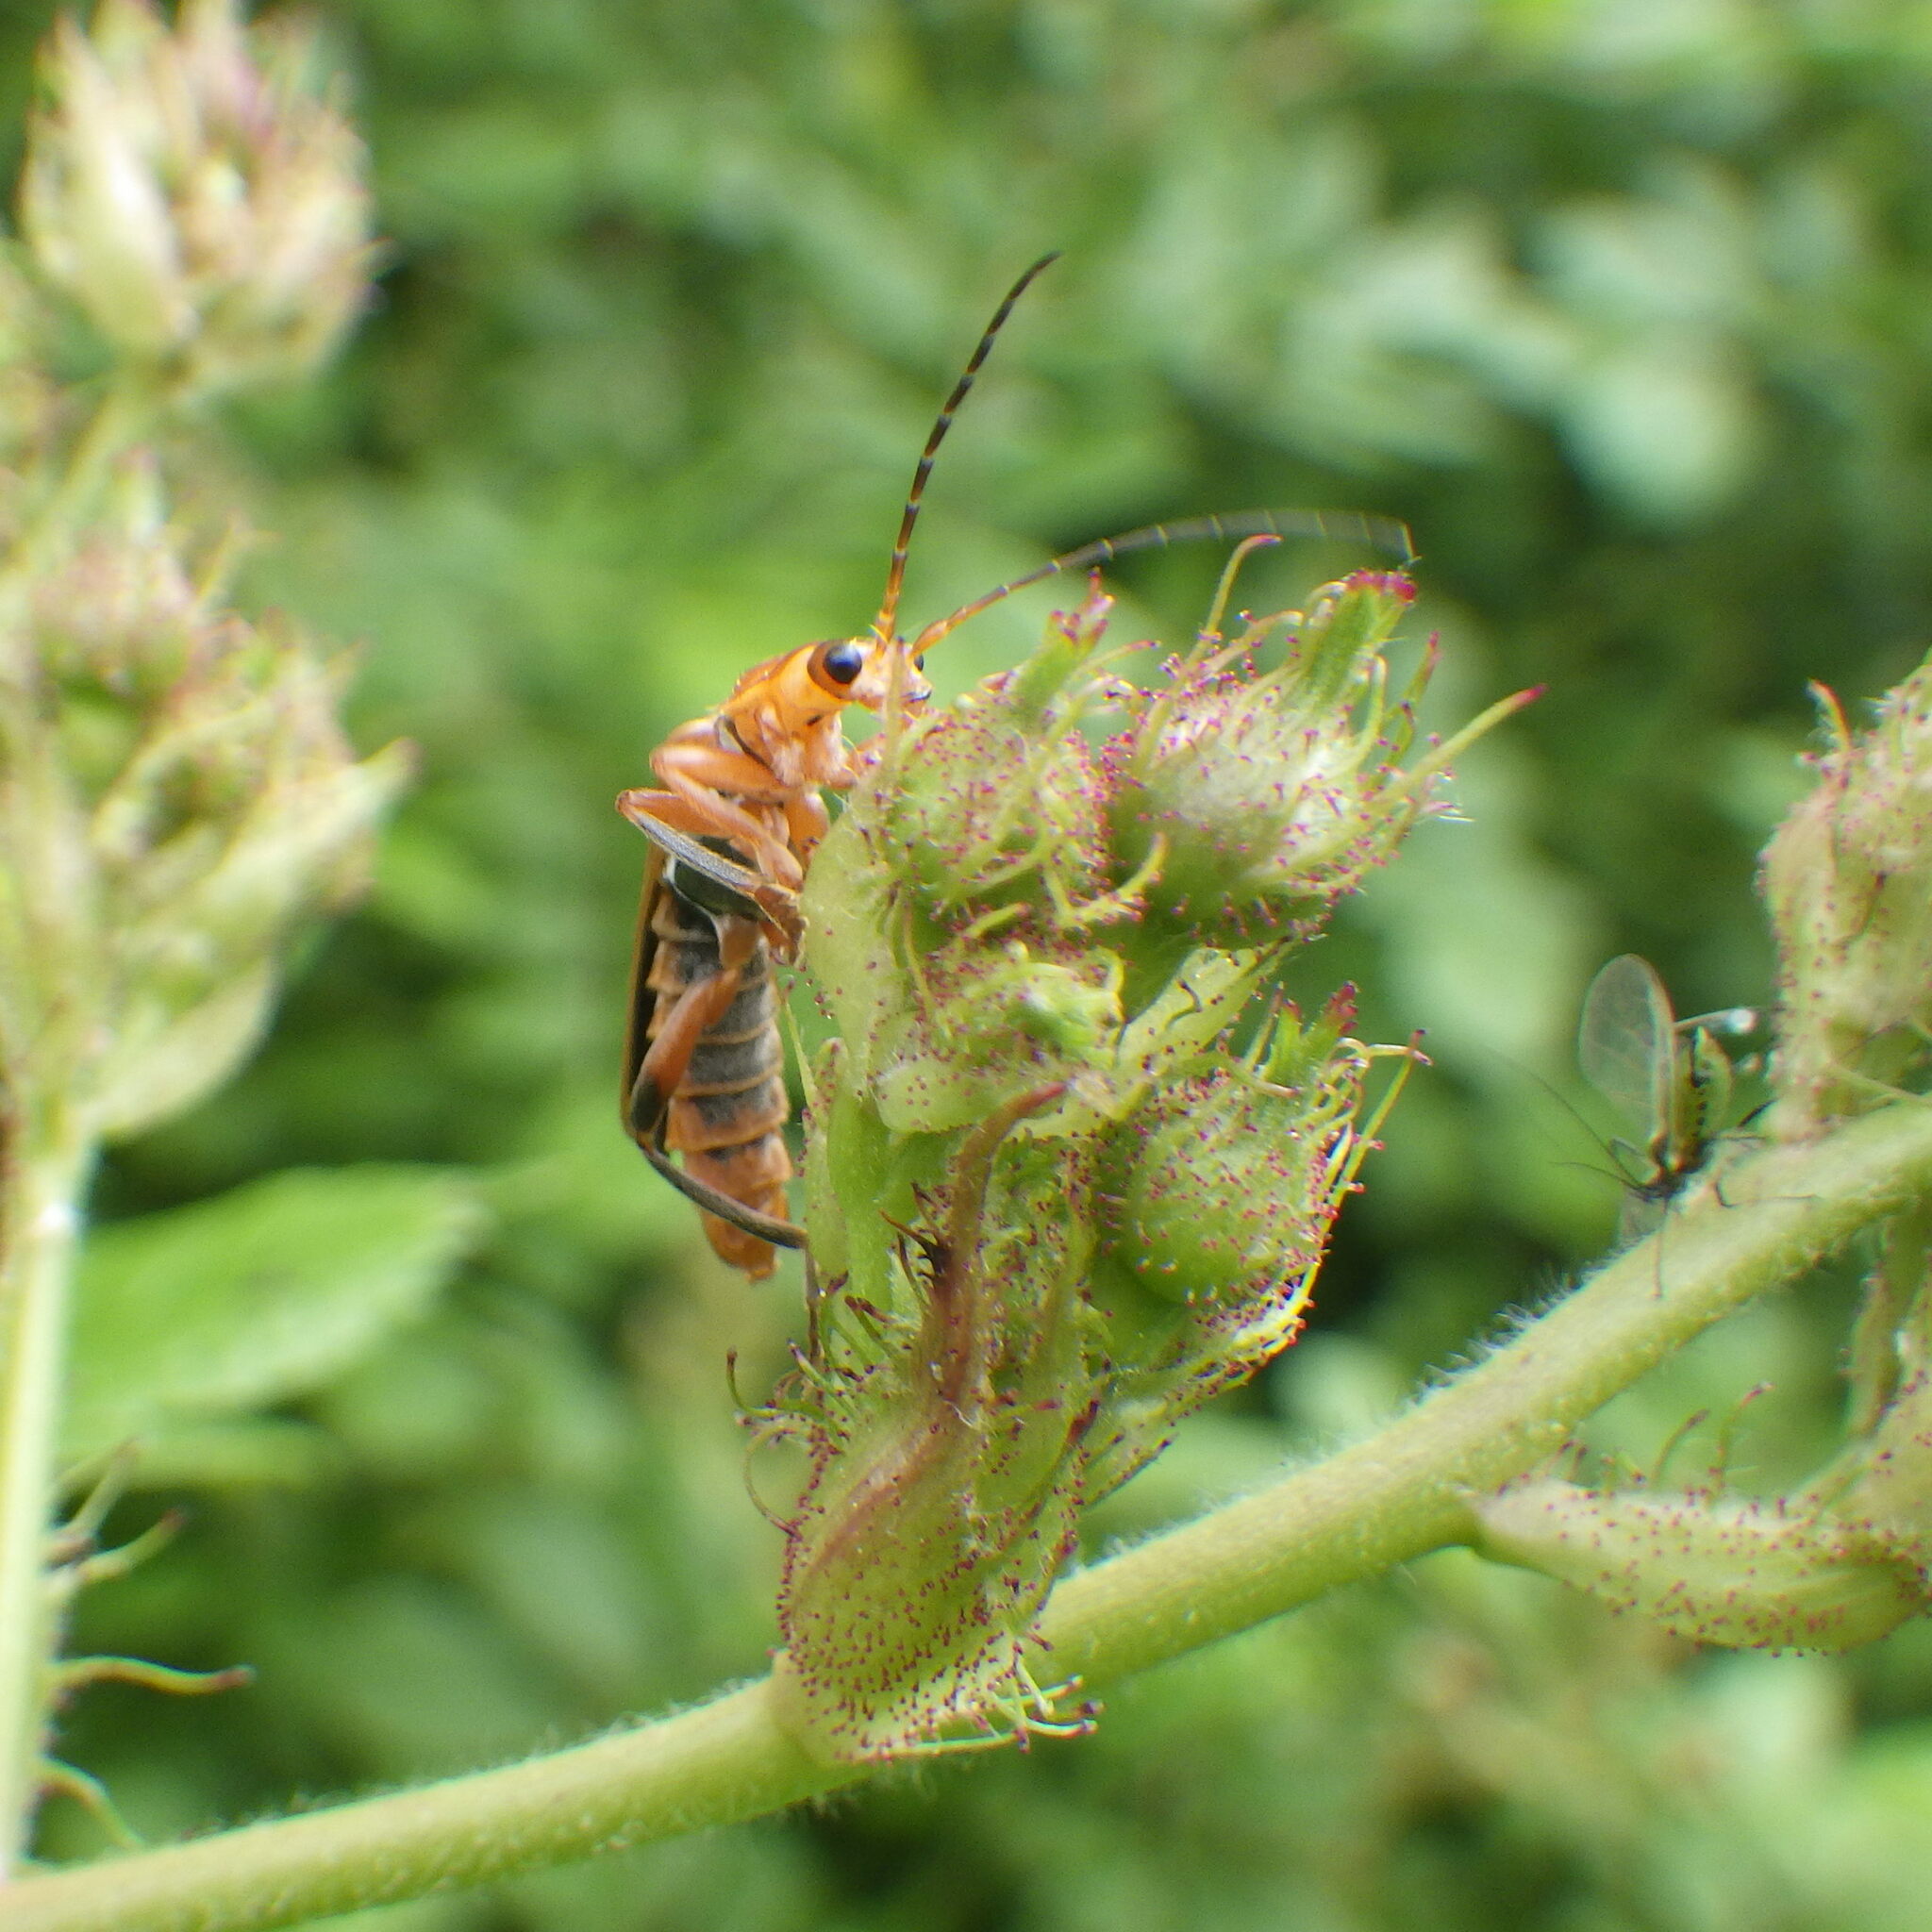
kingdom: Animalia
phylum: Arthropoda
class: Insecta
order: Coleoptera
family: Cantharidae
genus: Cantharis
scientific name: Cantharis livida
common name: Livid soldier beetle
